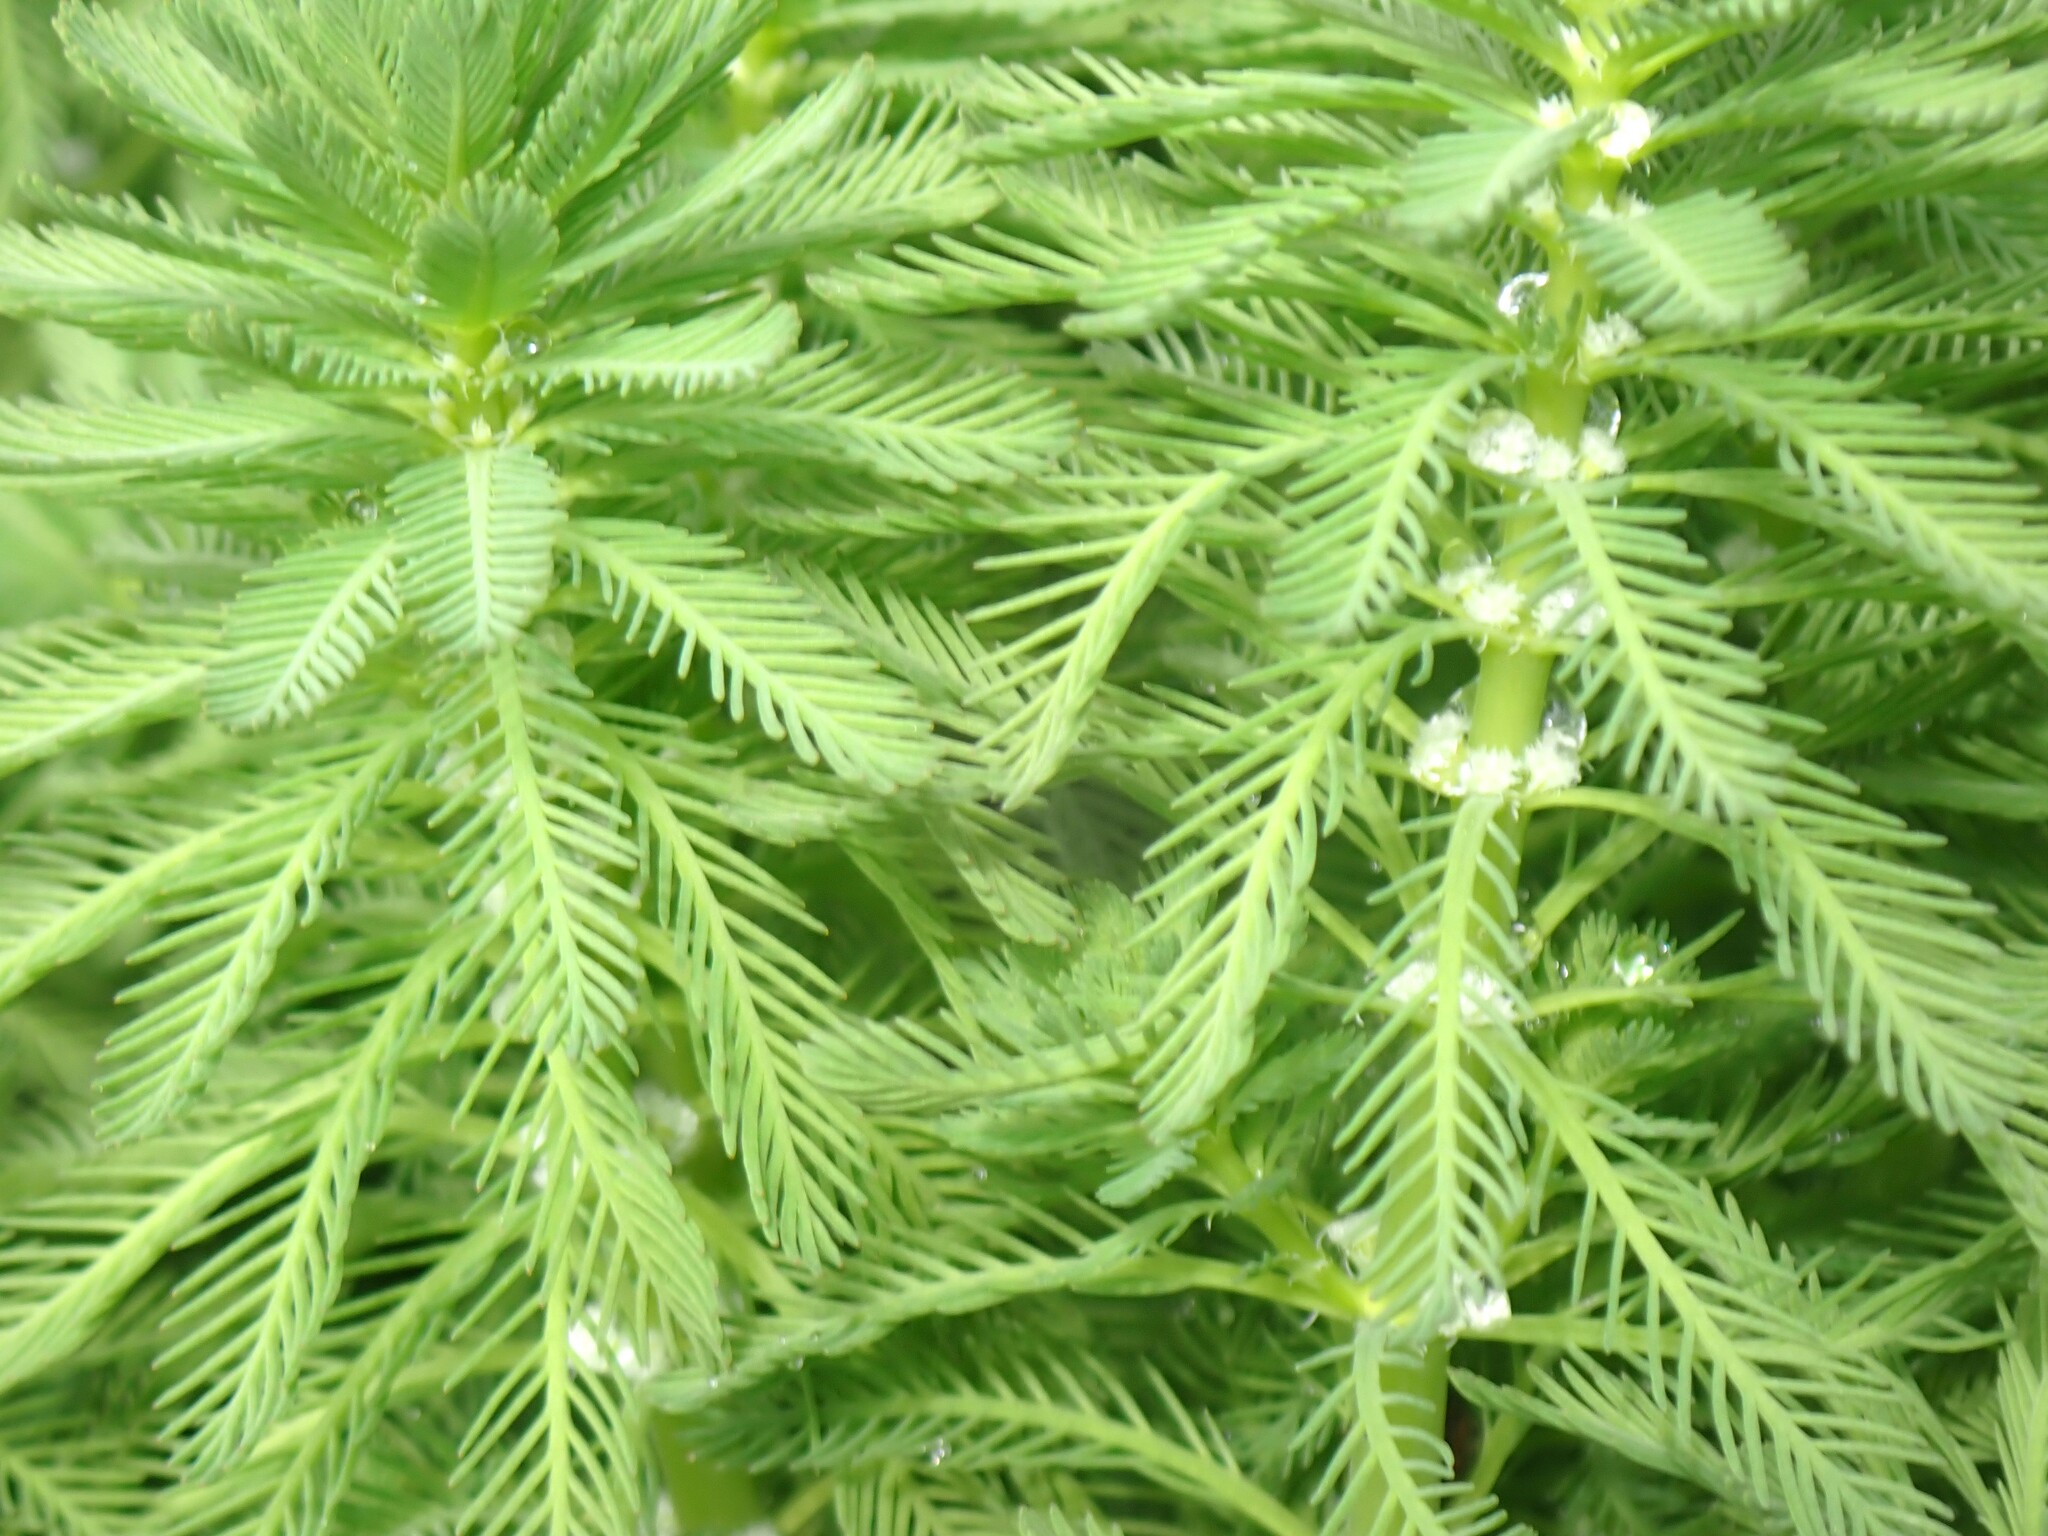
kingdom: Plantae
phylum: Tracheophyta
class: Magnoliopsida
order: Saxifragales
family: Haloragaceae
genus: Myriophyllum
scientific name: Myriophyllum aquaticum
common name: Parrot's feather
